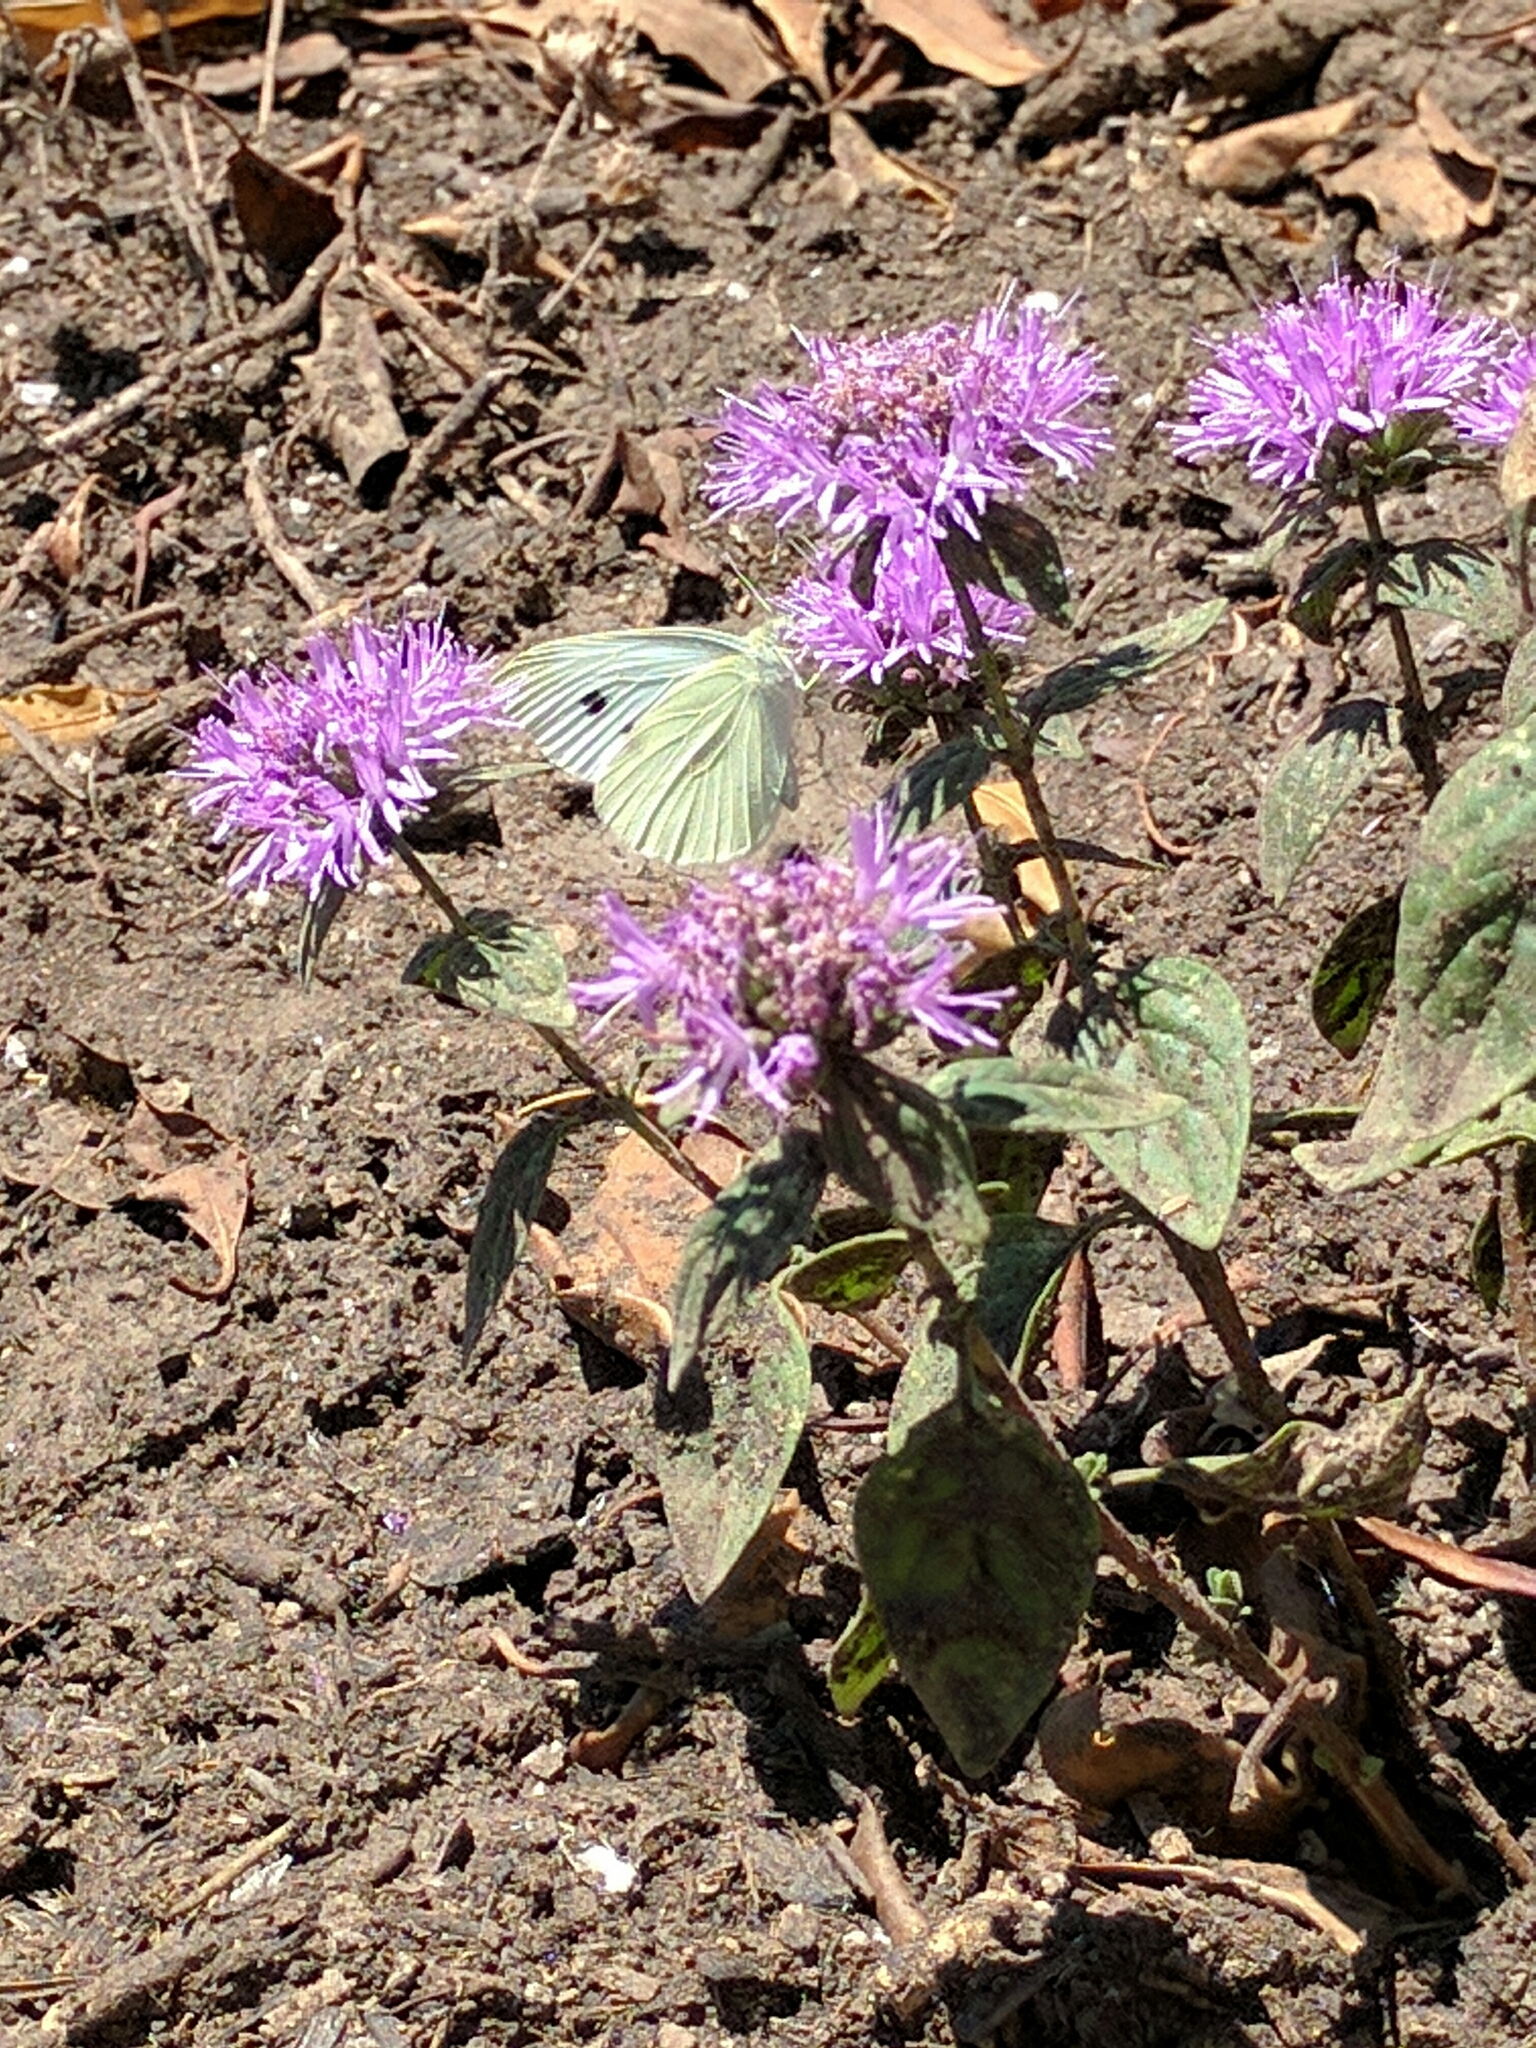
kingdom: Animalia
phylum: Arthropoda
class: Insecta
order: Lepidoptera
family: Pieridae
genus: Pieris
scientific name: Pieris rapae
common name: Small white
